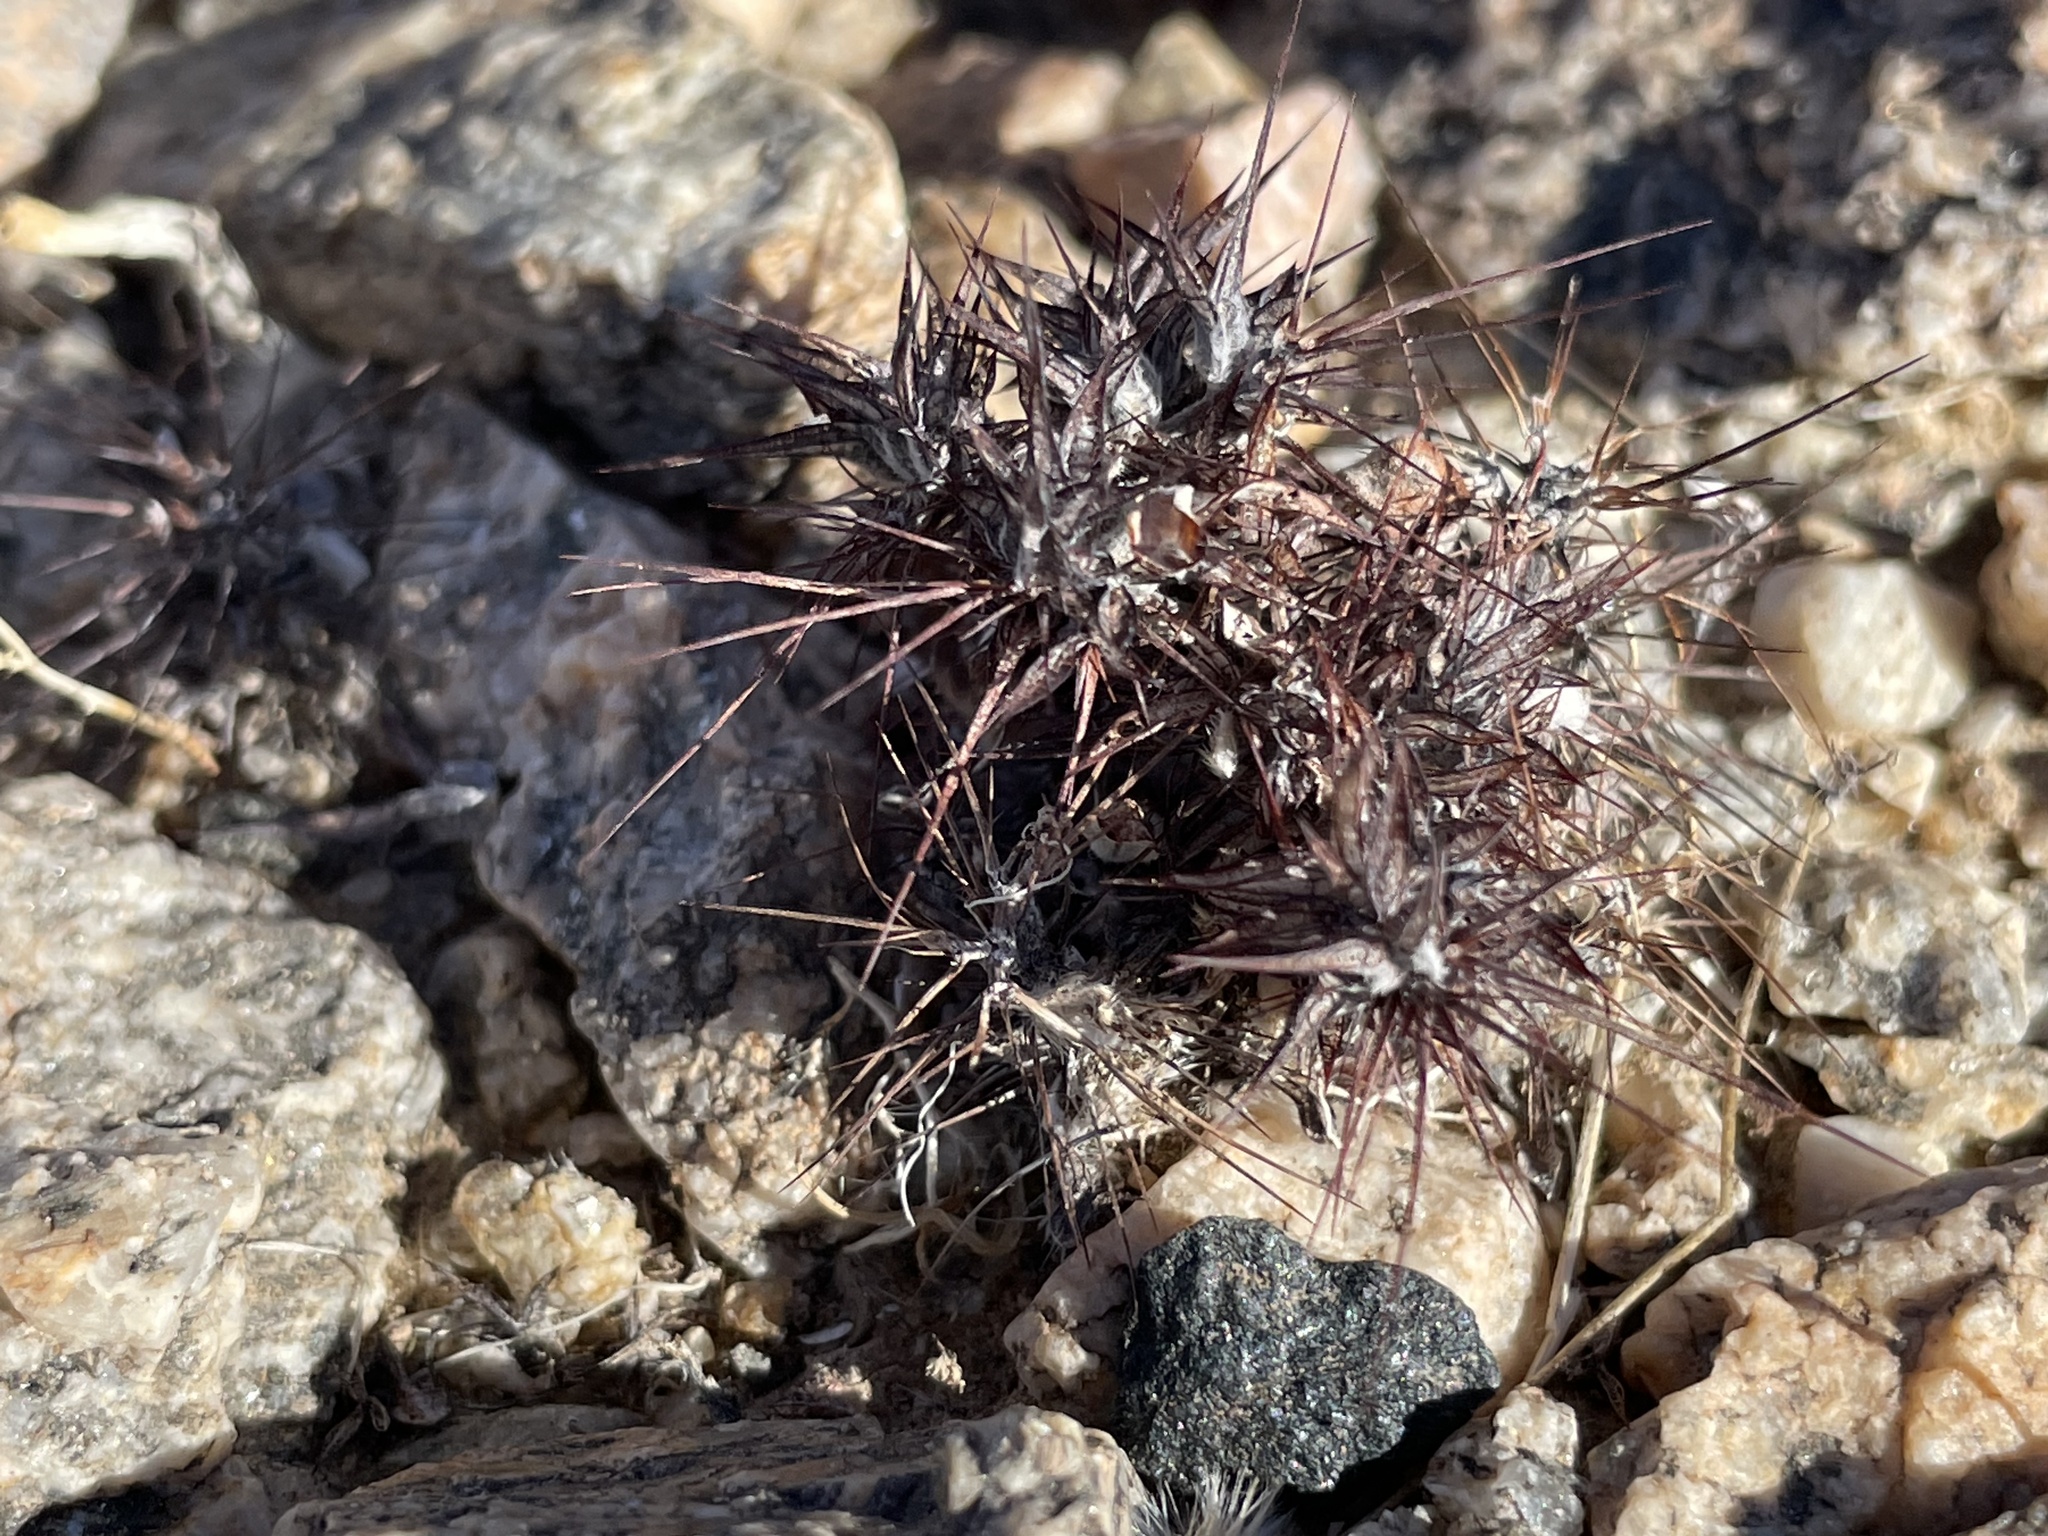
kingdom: Plantae
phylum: Tracheophyta
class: Magnoliopsida
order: Caryophyllales
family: Polygonaceae
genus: Chorizanthe
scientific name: Chorizanthe rigida
